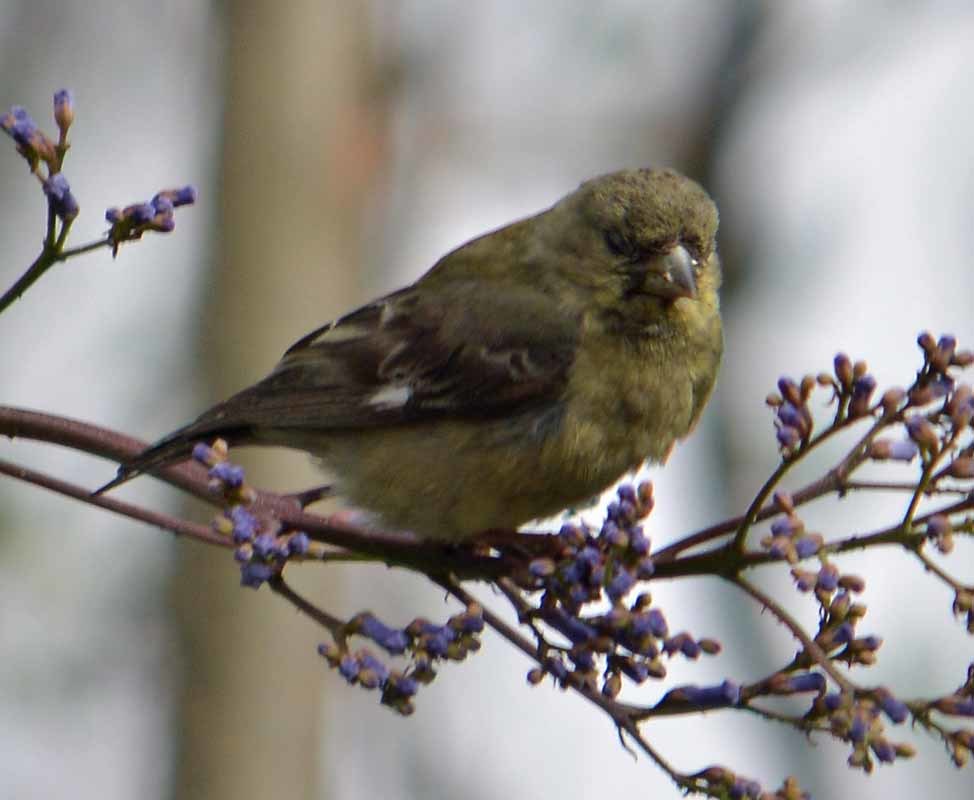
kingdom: Animalia
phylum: Chordata
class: Aves
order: Passeriformes
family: Fringillidae
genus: Spinus
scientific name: Spinus psaltria
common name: Lesser goldfinch
